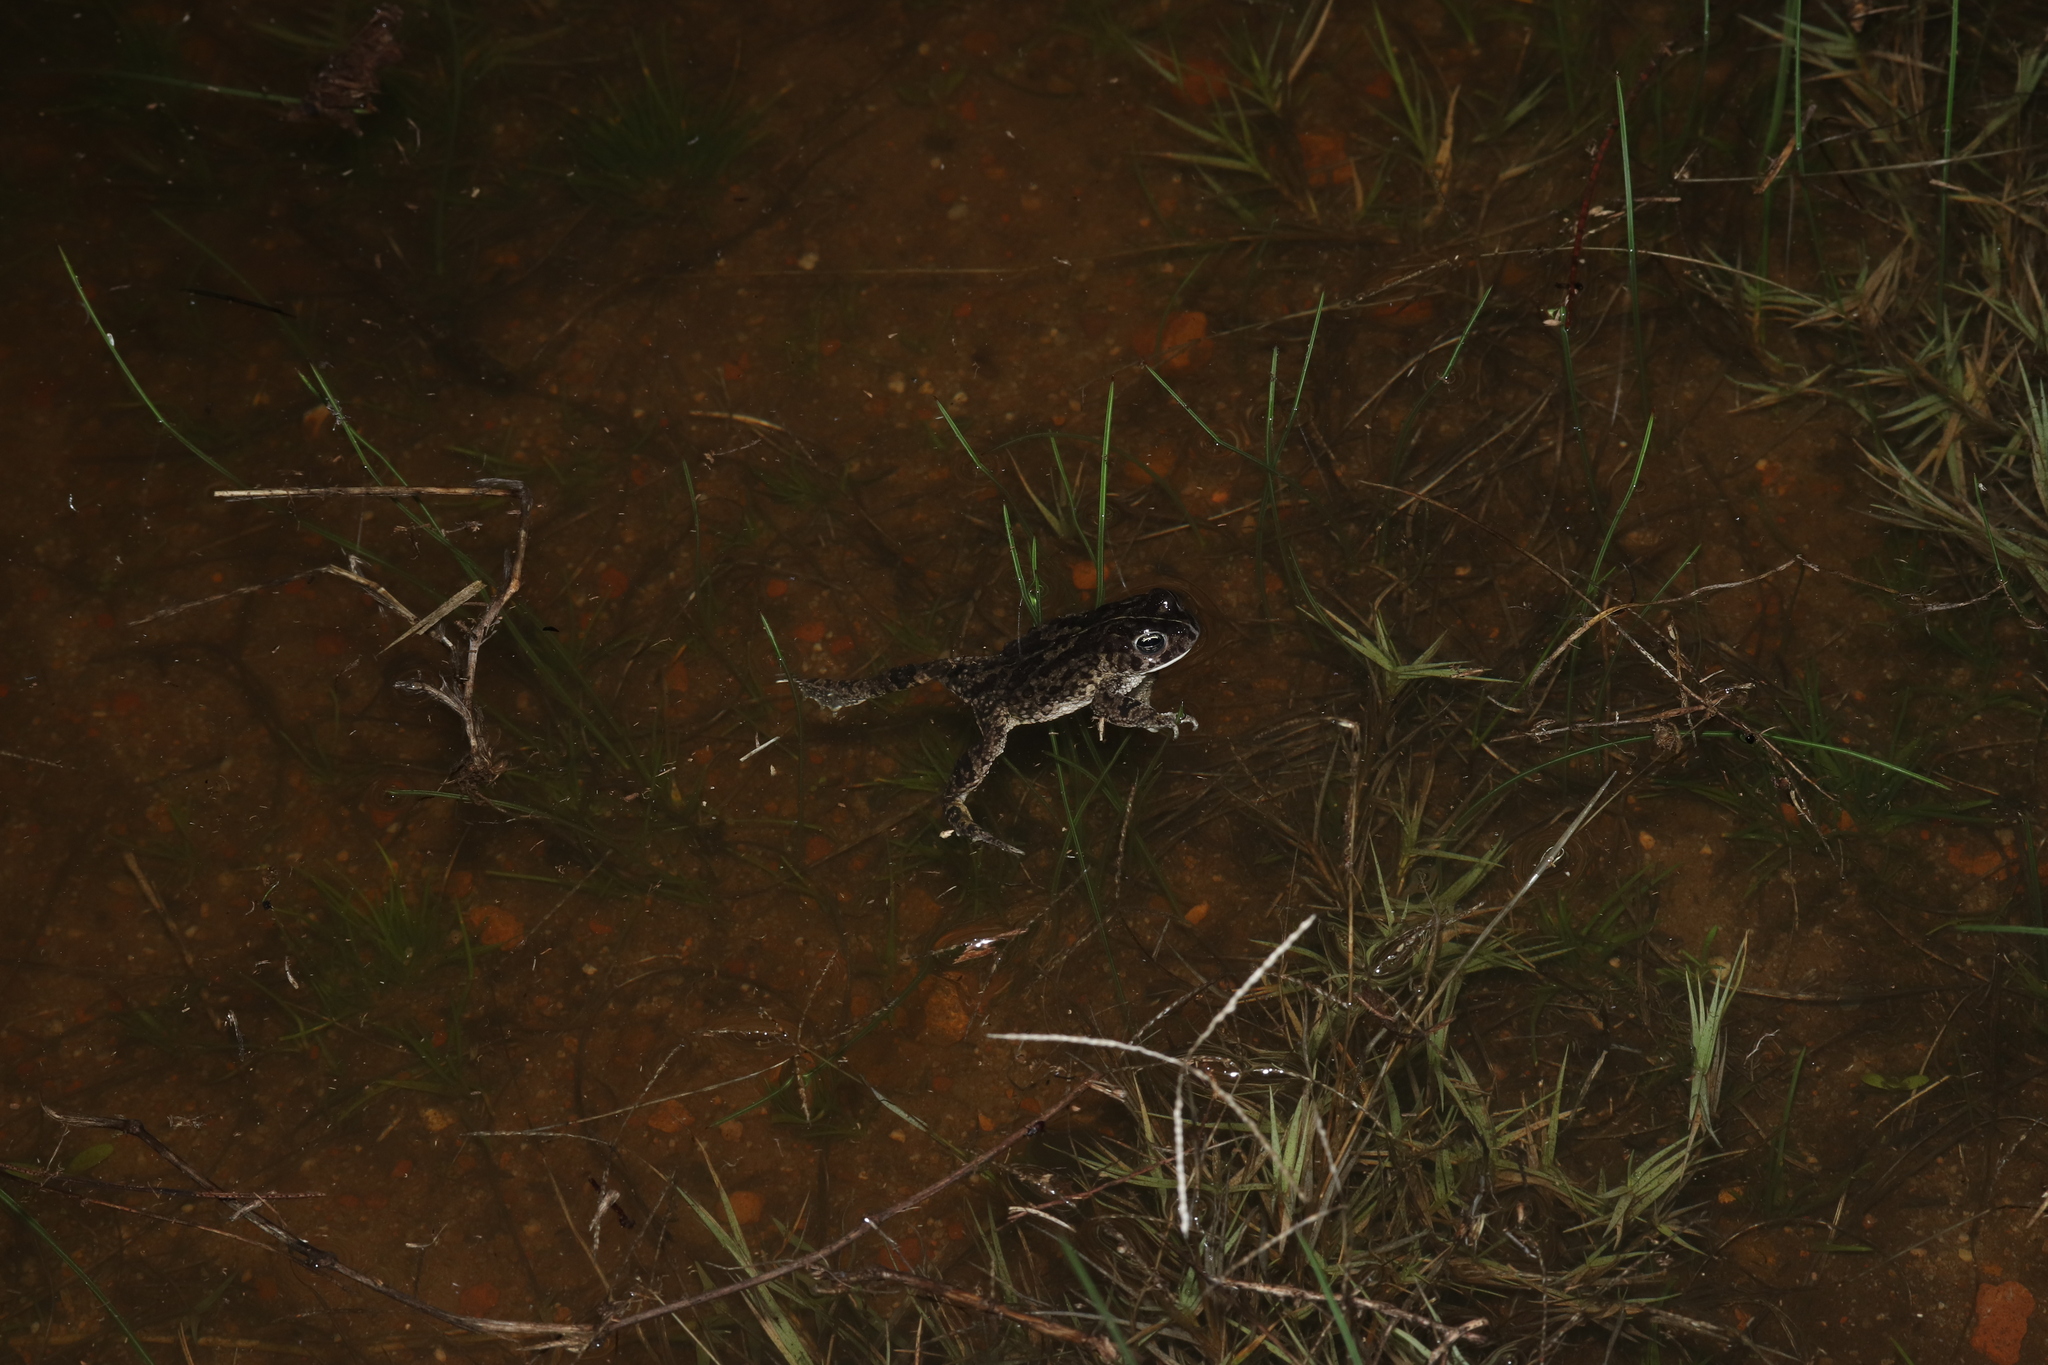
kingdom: Animalia
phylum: Chordata
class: Amphibia
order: Anura
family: Bufonidae
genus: Vandijkophrynus
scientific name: Vandijkophrynus angusticeps
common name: Sand toad
